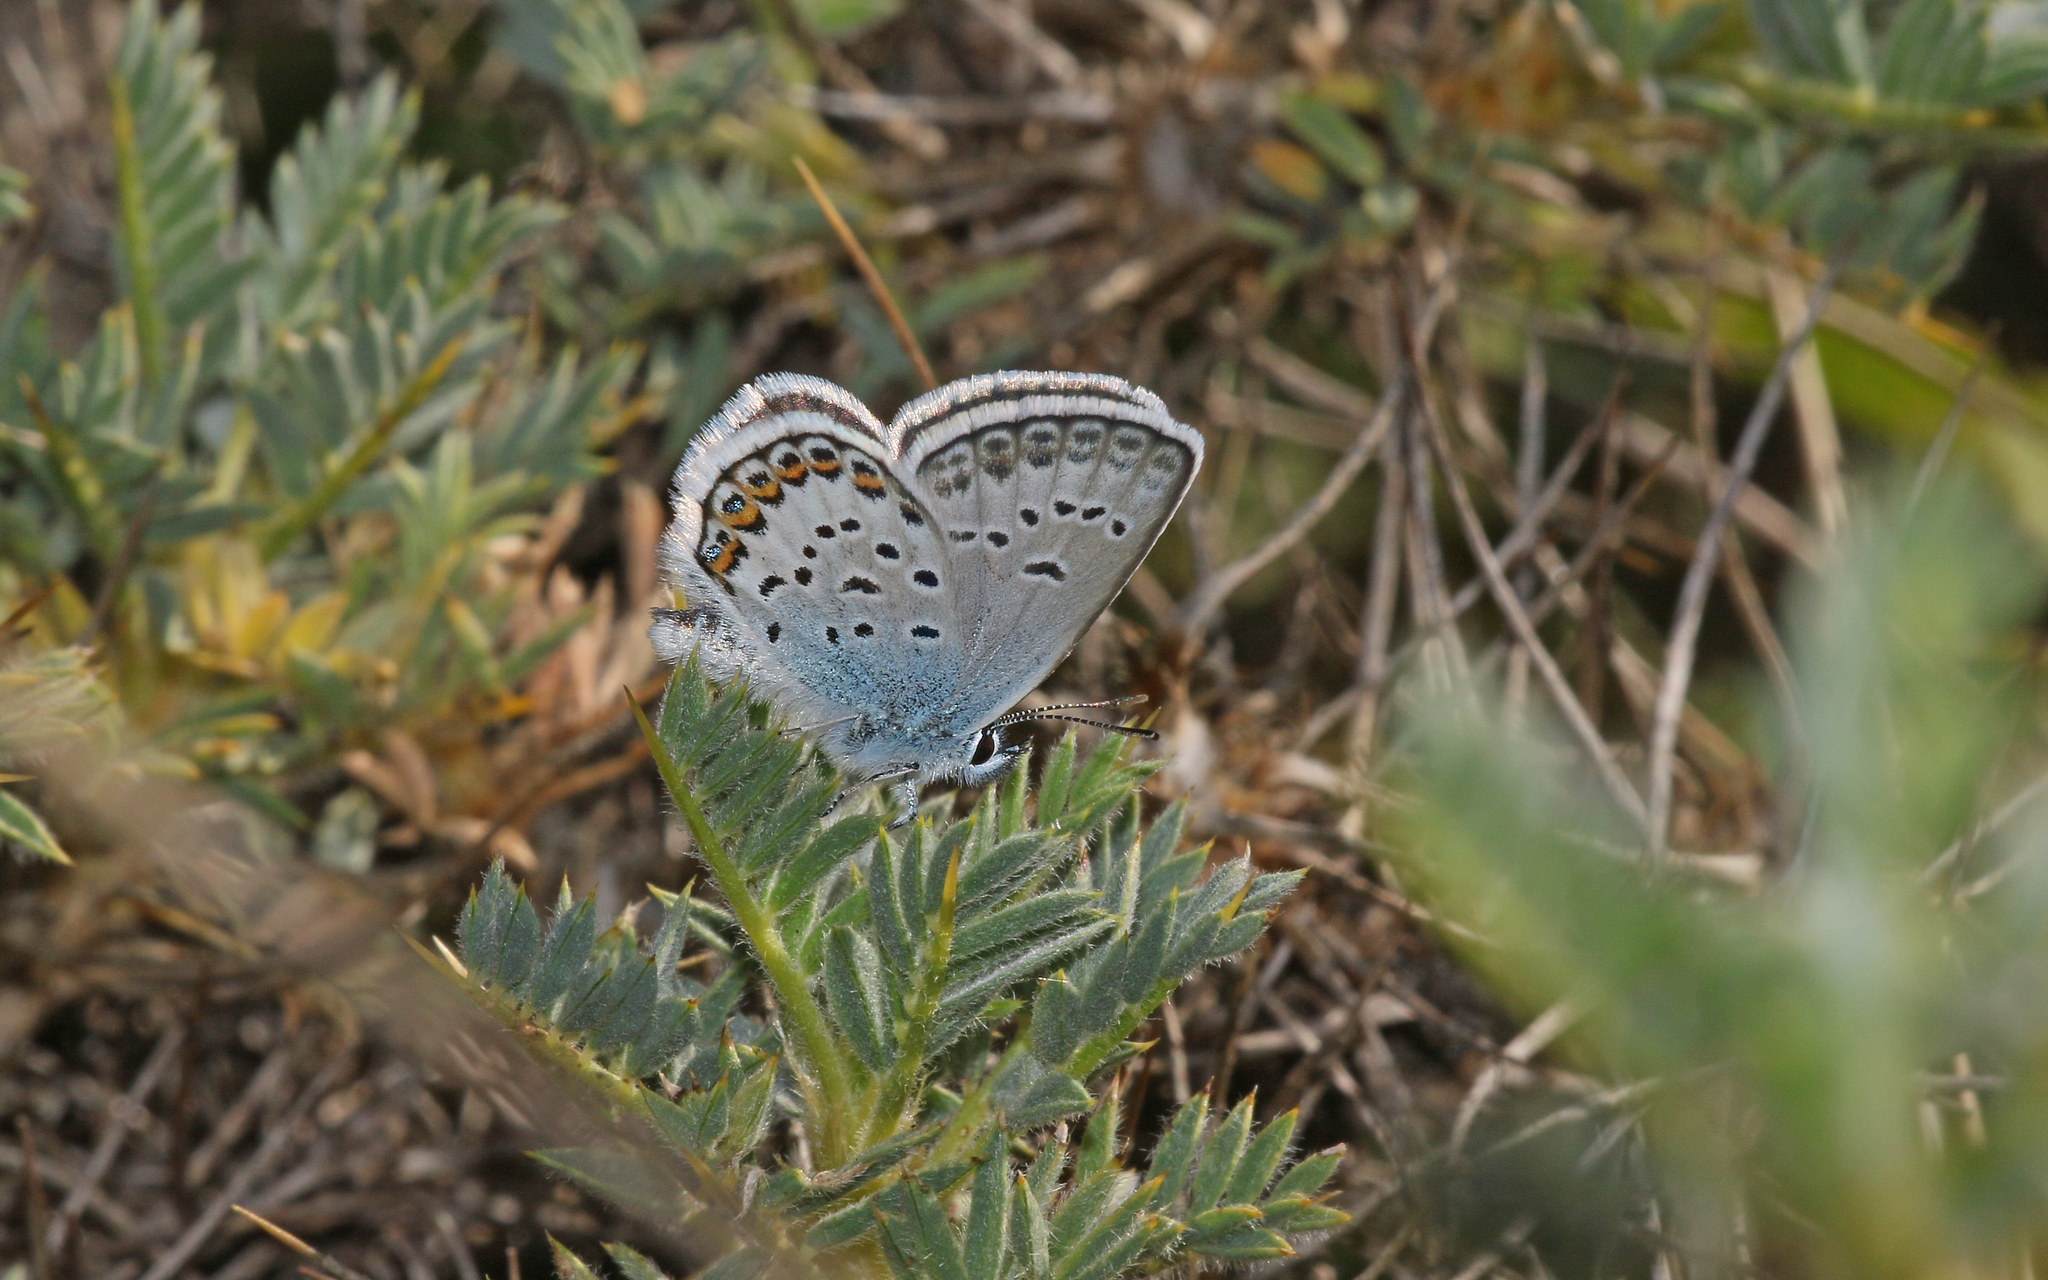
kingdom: Animalia
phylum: Arthropoda
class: Insecta
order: Lepidoptera
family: Lycaenidae
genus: Plebejus
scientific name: Plebejus argus
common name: Silver-studded blue
